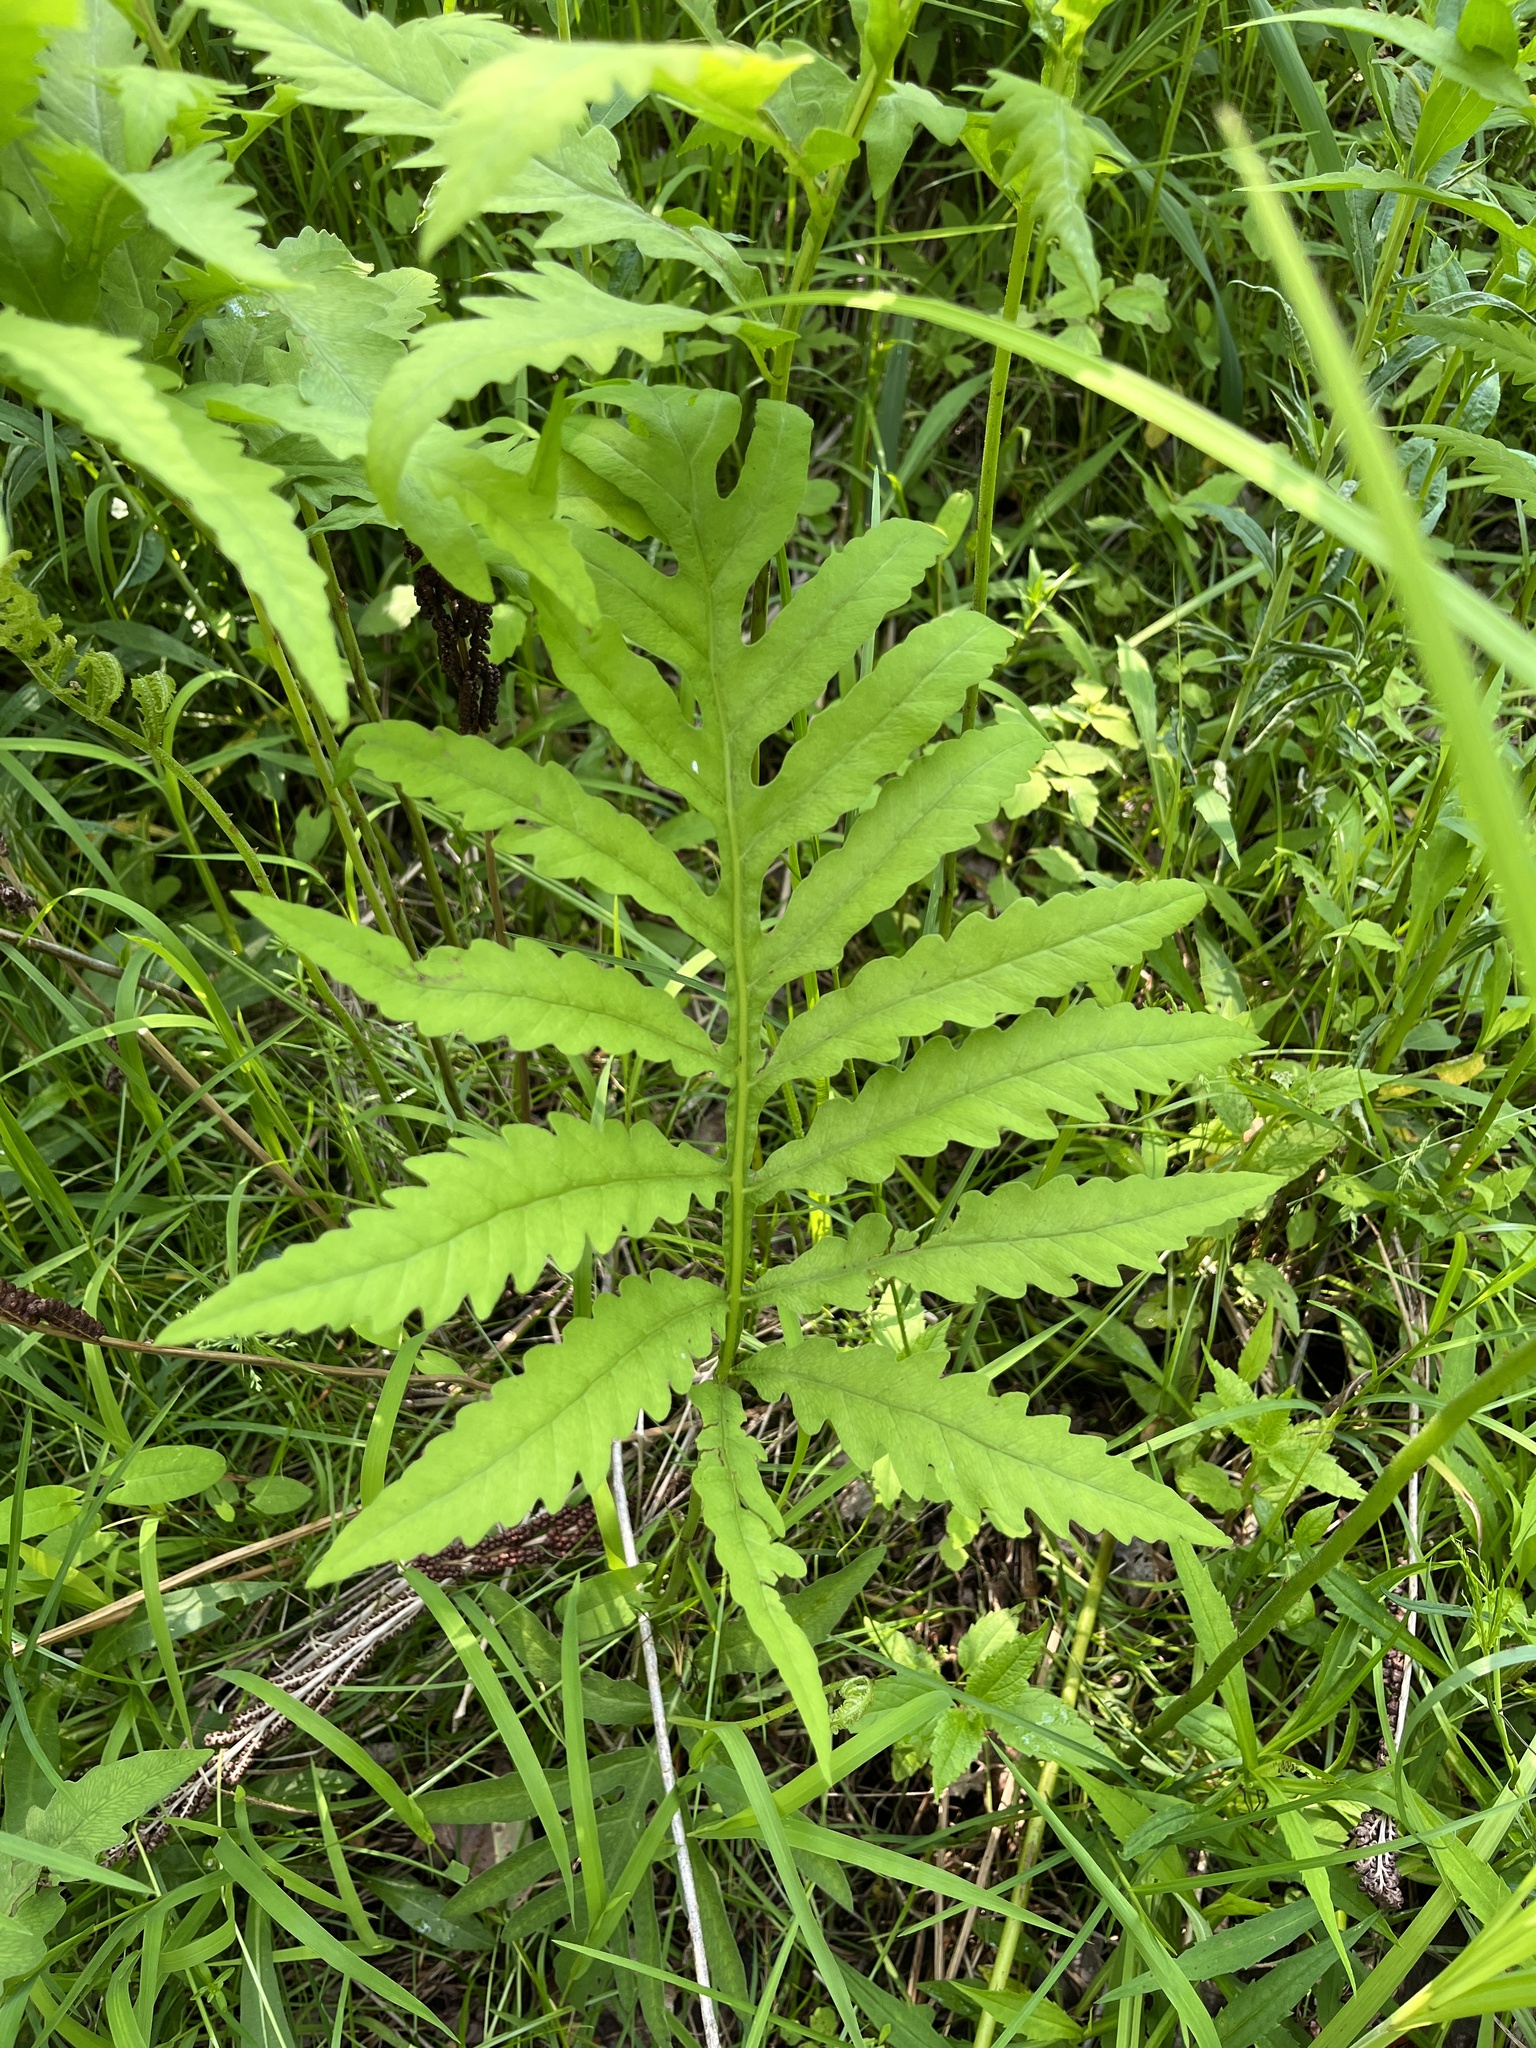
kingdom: Plantae
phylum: Tracheophyta
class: Polypodiopsida
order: Polypodiales
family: Onocleaceae
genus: Onoclea
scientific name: Onoclea sensibilis
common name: Sensitive fern
